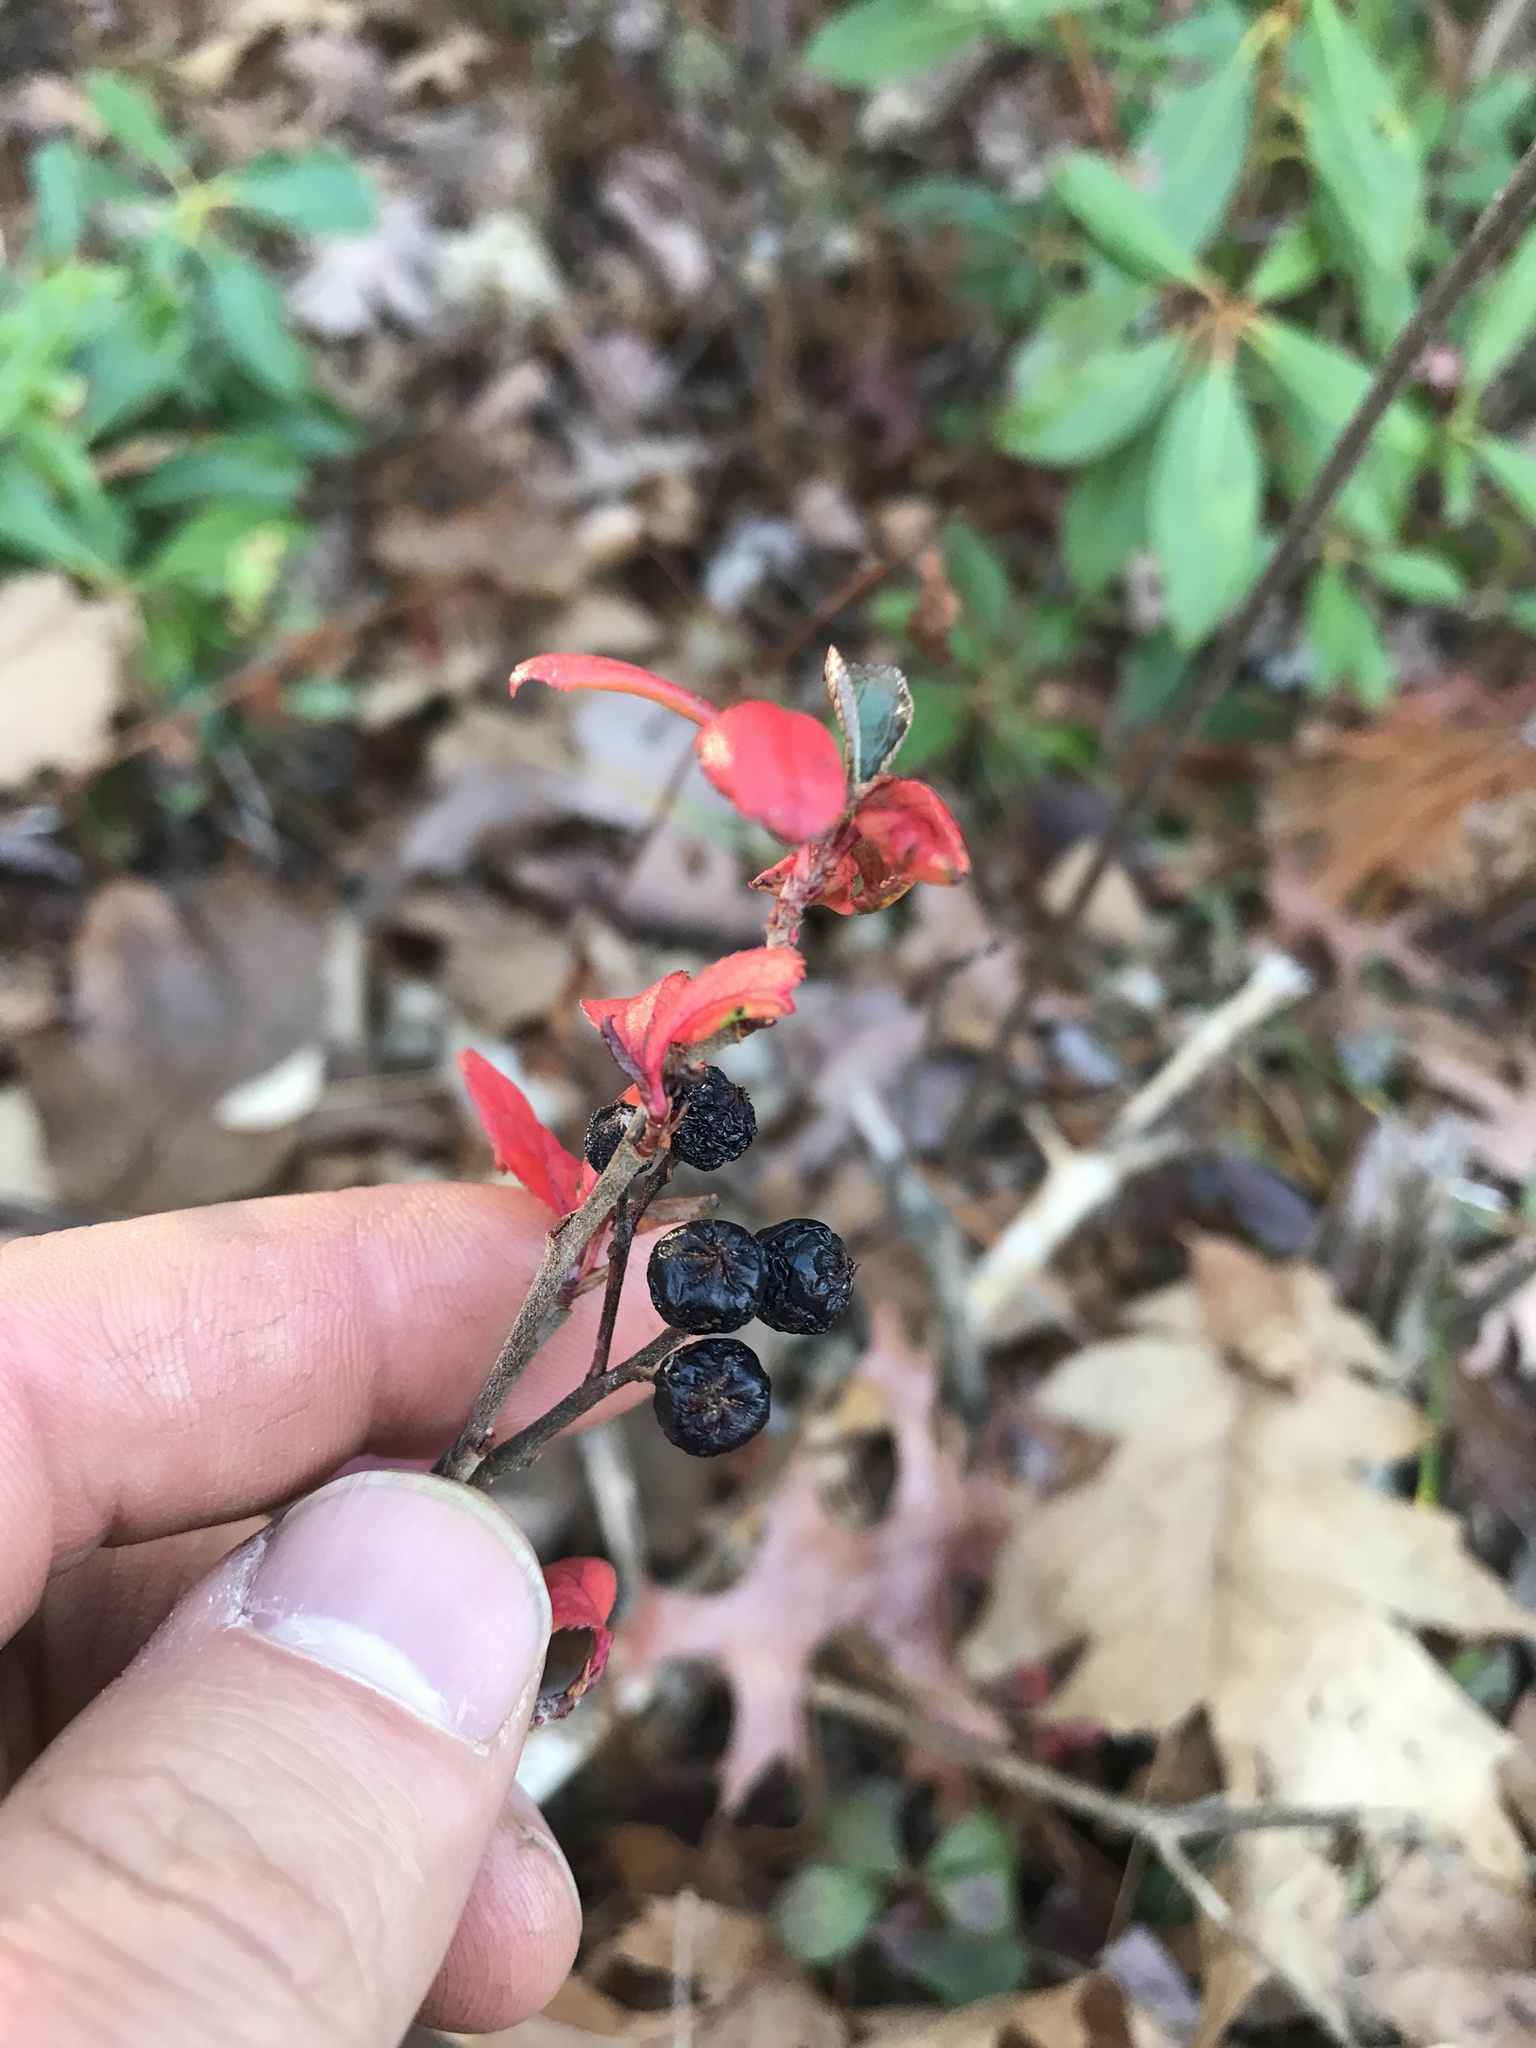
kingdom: Plantae
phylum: Tracheophyta
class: Magnoliopsida
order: Rosales
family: Rosaceae
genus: Aronia
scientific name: Aronia melanocarpa
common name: Black chokeberry
